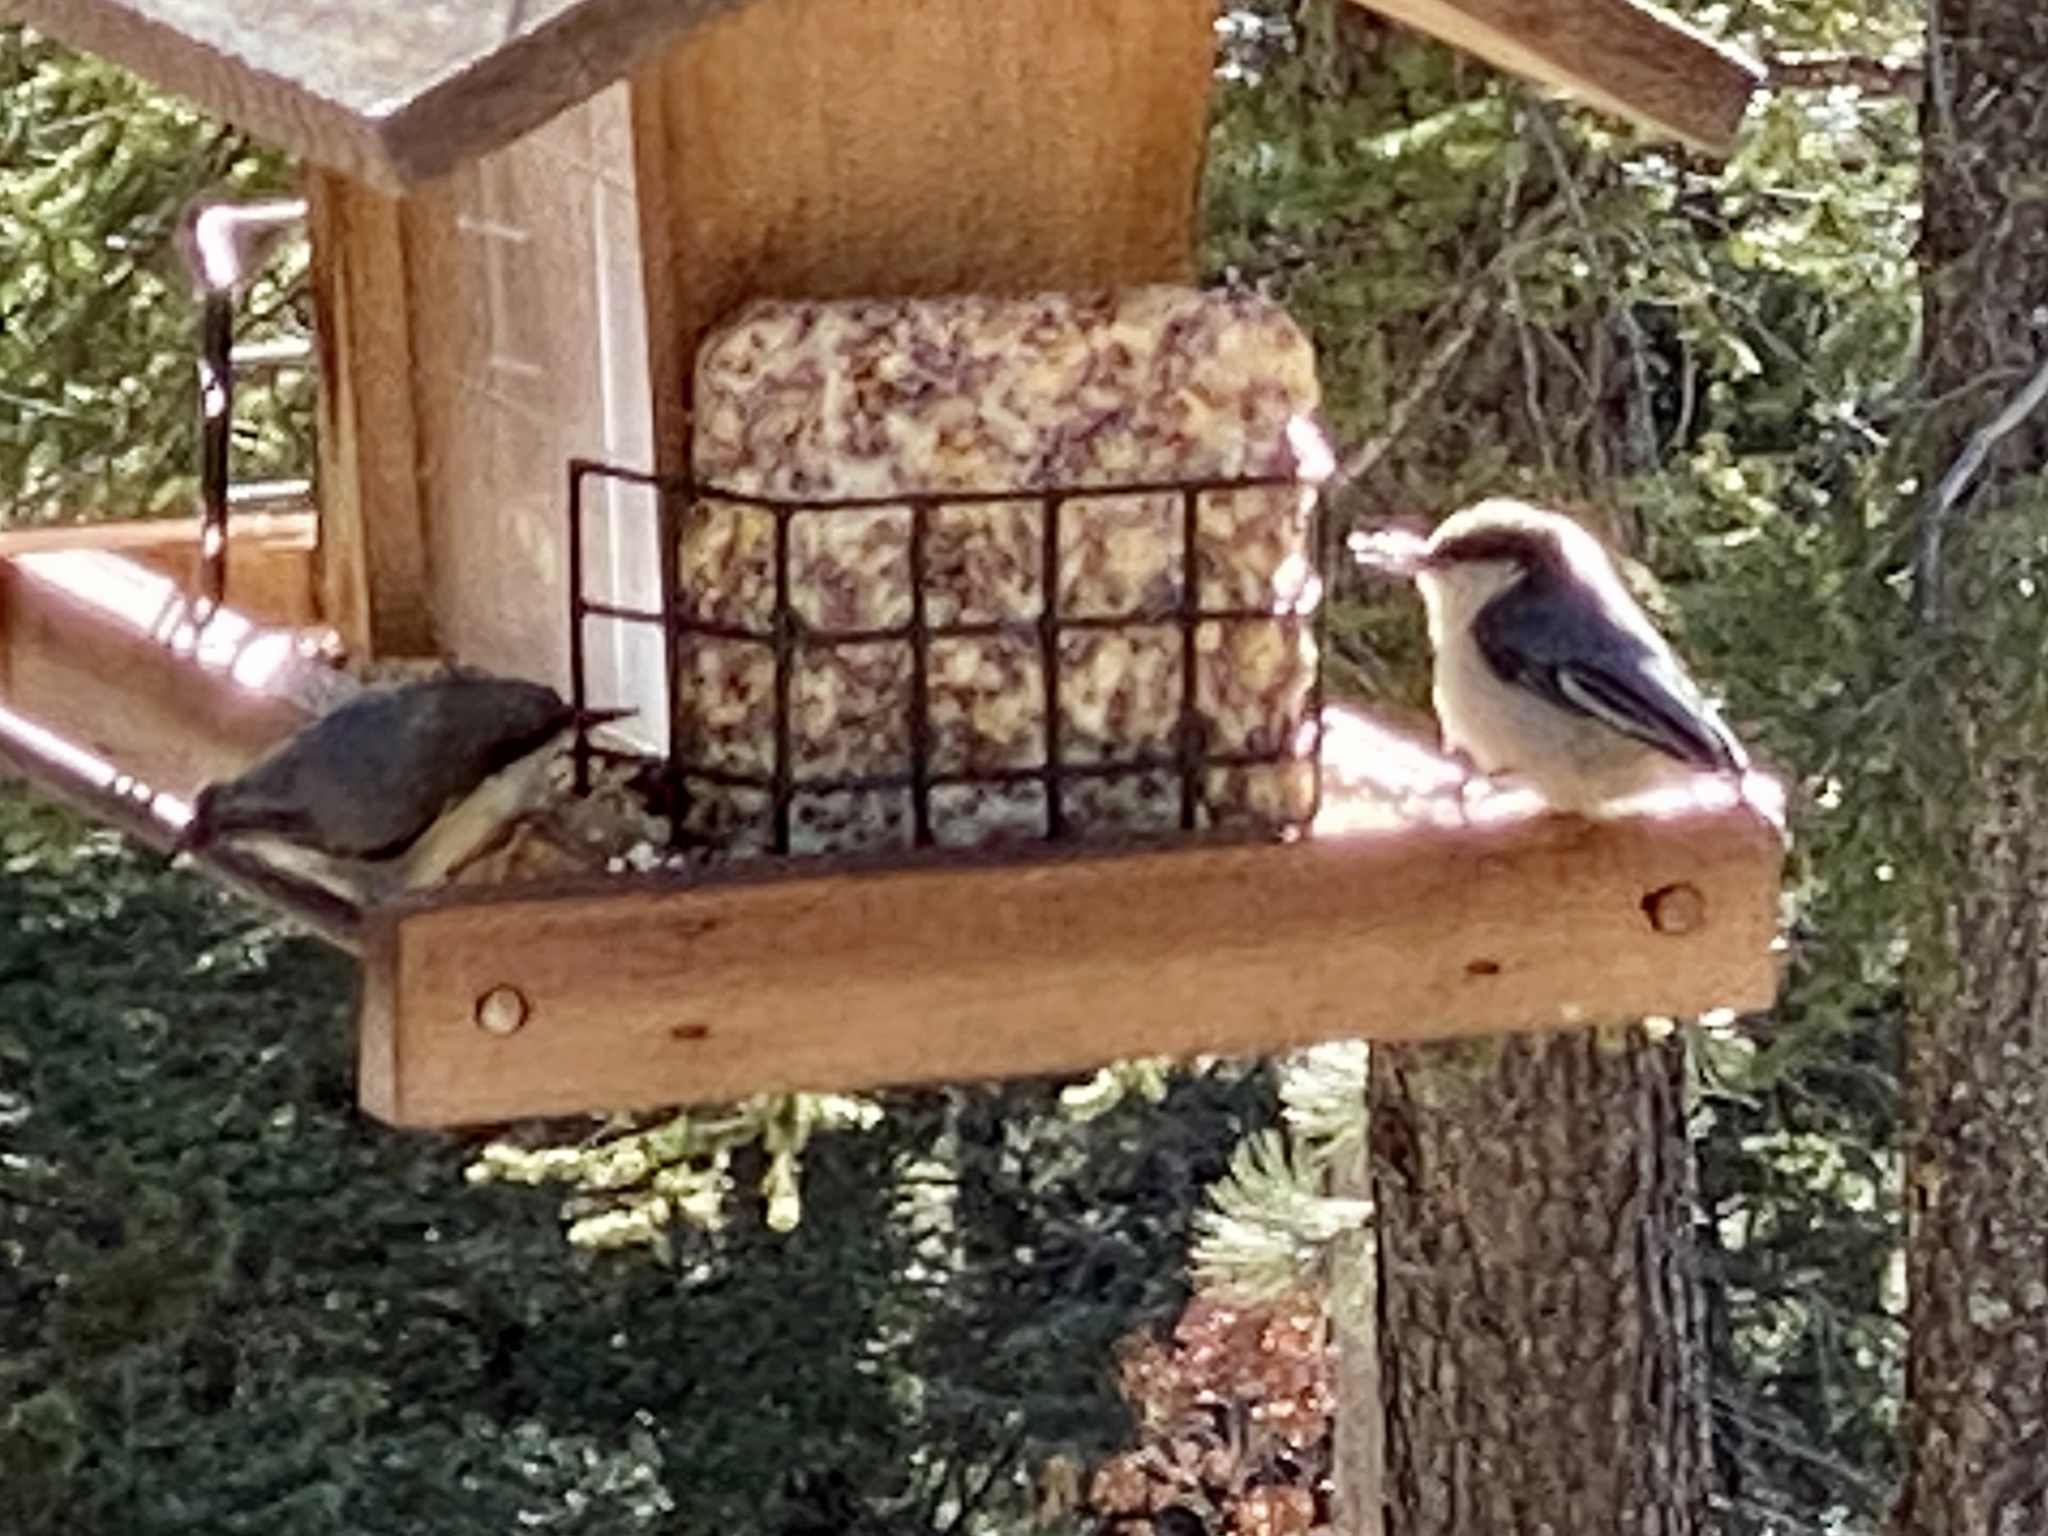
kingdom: Animalia
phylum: Chordata
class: Aves
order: Passeriformes
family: Sittidae
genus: Sitta
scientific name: Sitta pygmaea
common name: Pygmy nuthatch
